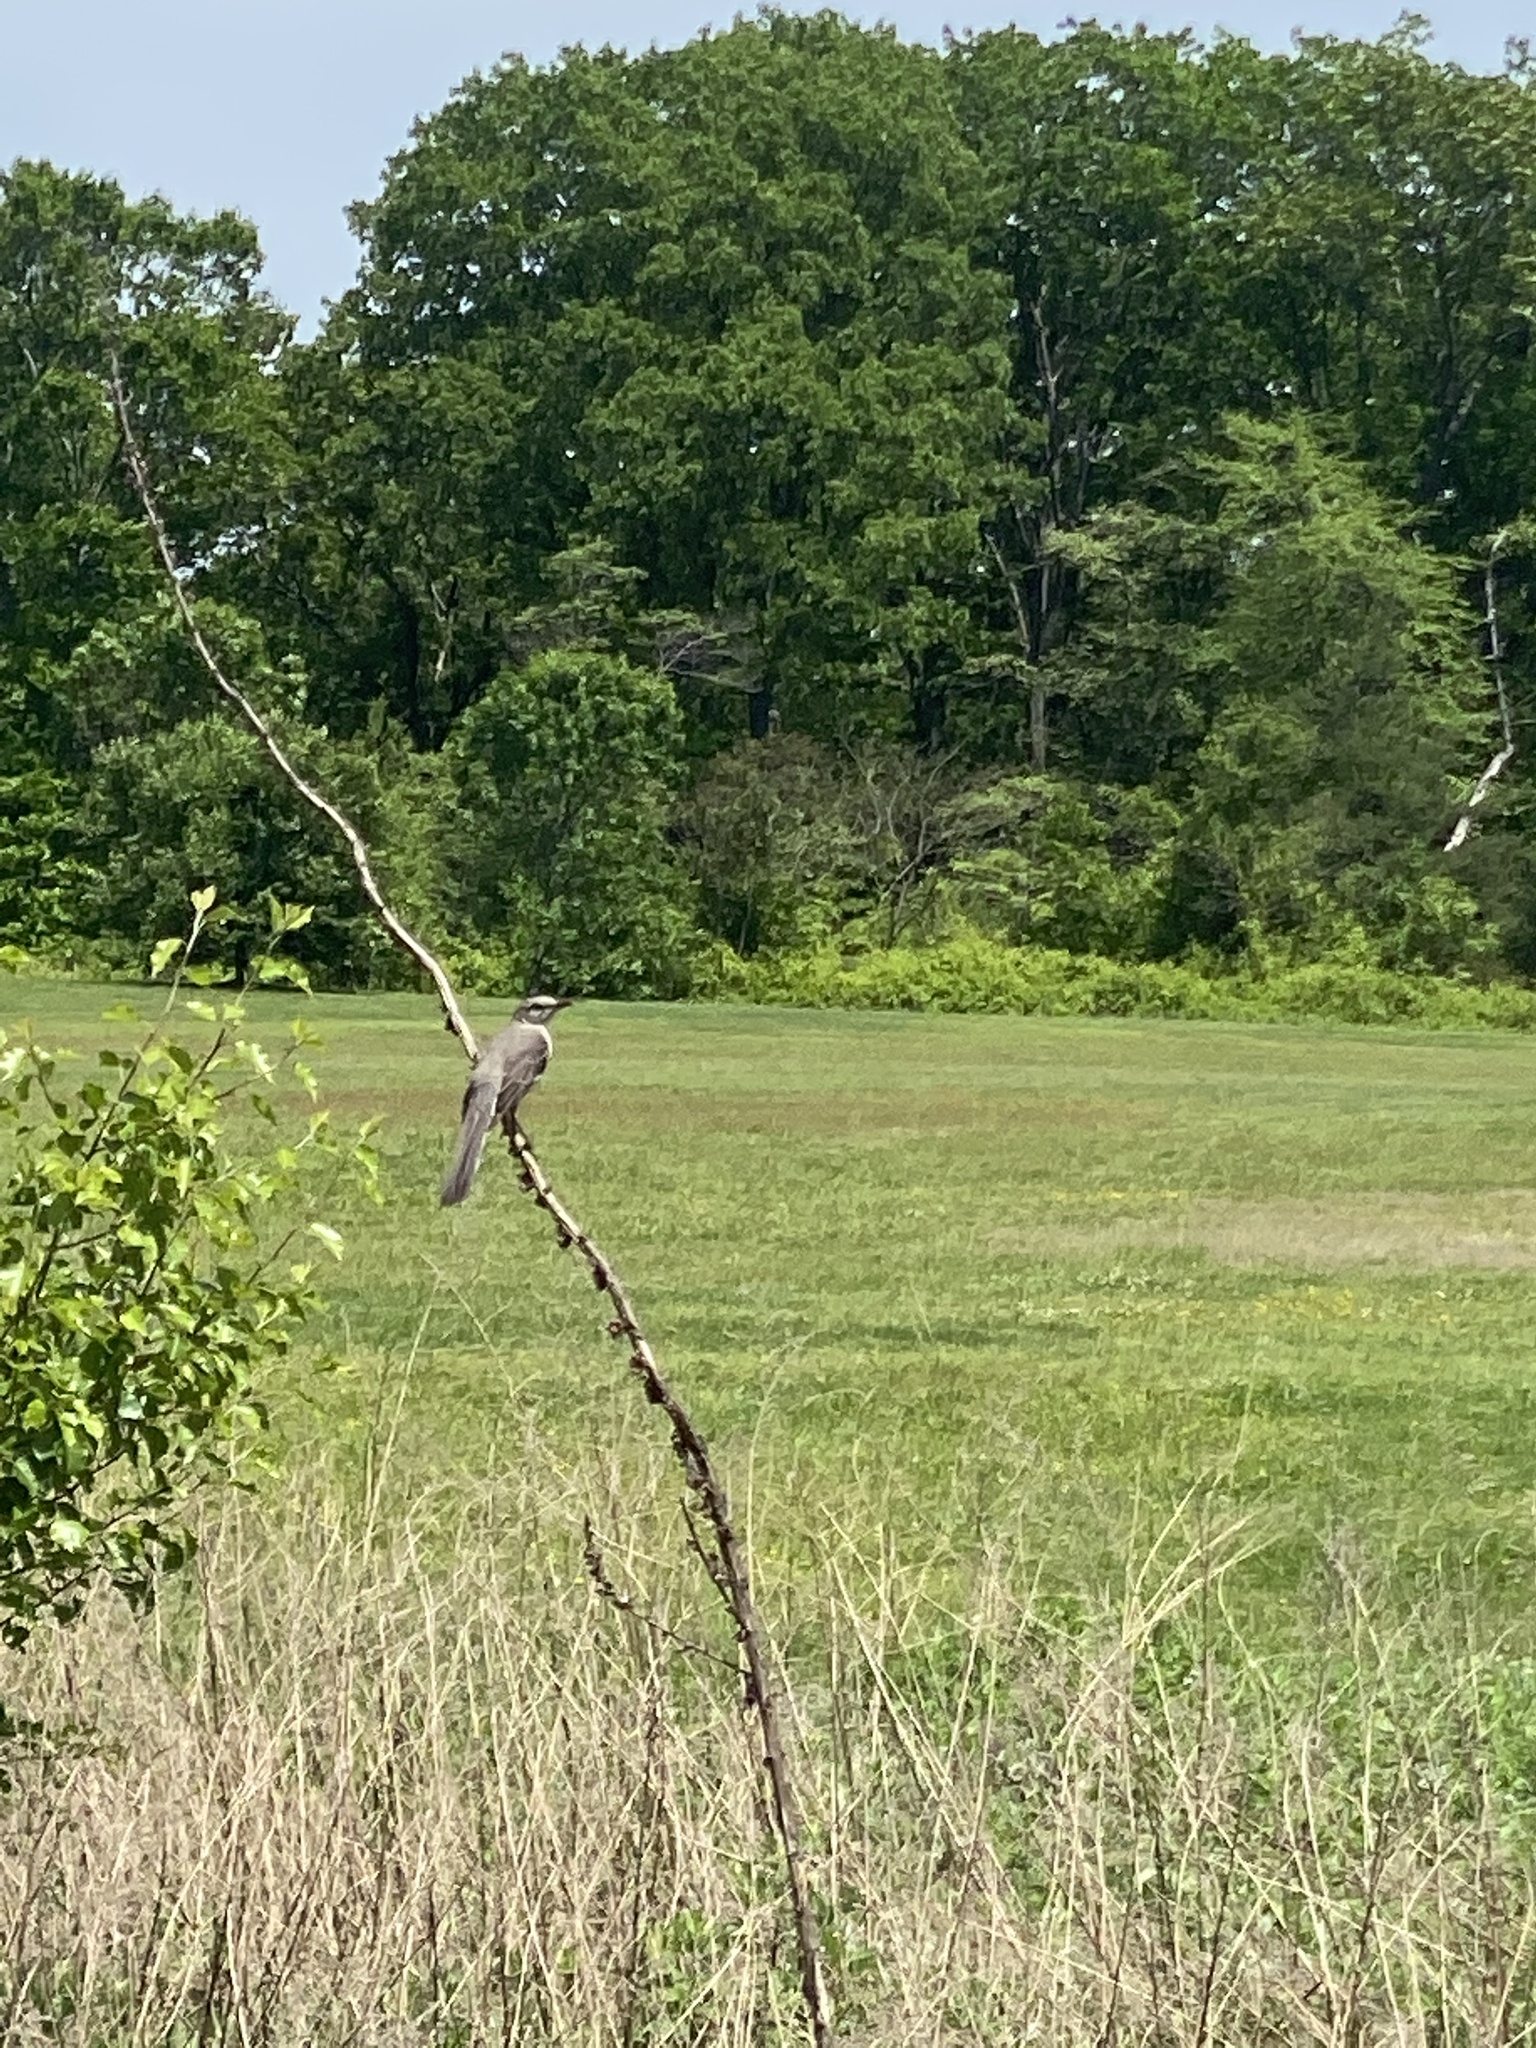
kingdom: Animalia
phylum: Chordata
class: Aves
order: Passeriformes
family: Mimidae
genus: Mimus
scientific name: Mimus polyglottos
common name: Northern mockingbird
